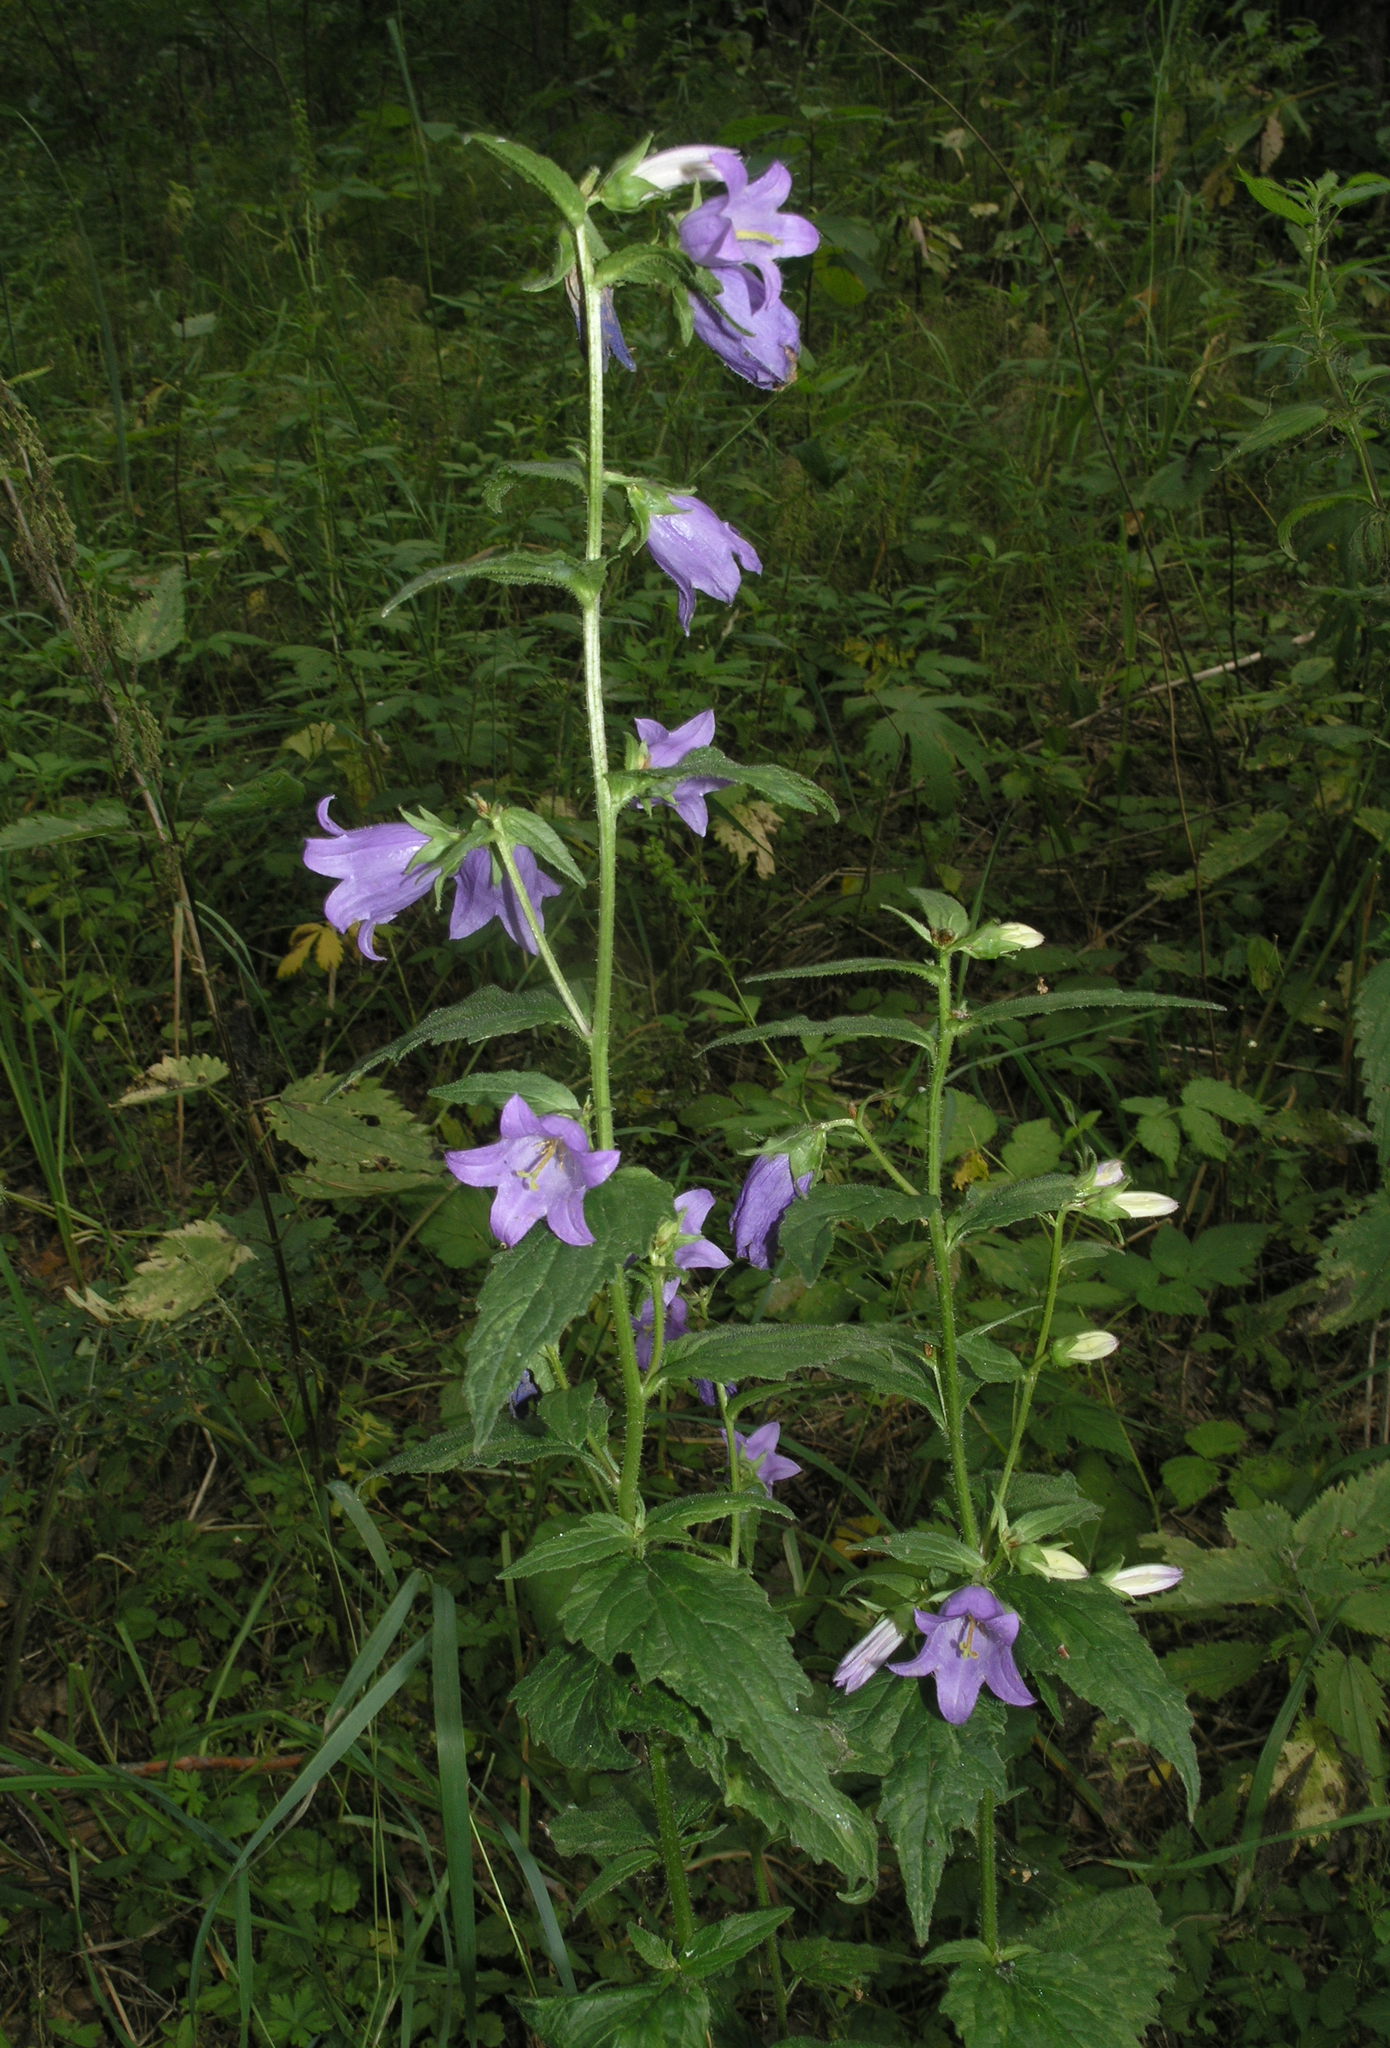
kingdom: Plantae
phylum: Tracheophyta
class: Magnoliopsida
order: Asterales
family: Campanulaceae
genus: Campanula
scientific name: Campanula trachelium
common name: Nettle-leaved bellflower
